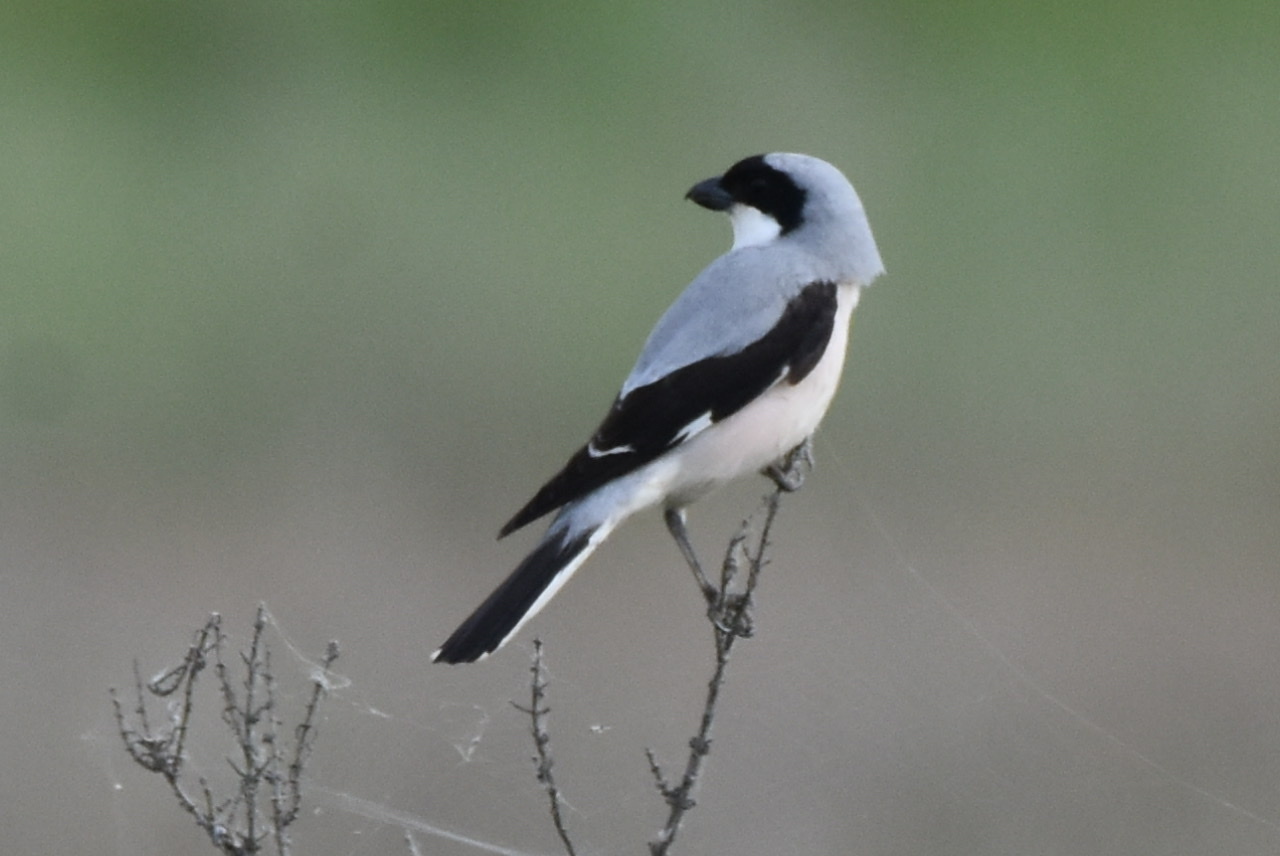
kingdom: Animalia
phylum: Chordata
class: Aves
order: Passeriformes
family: Laniidae
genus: Lanius
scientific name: Lanius minor
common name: Lesser grey shrike
